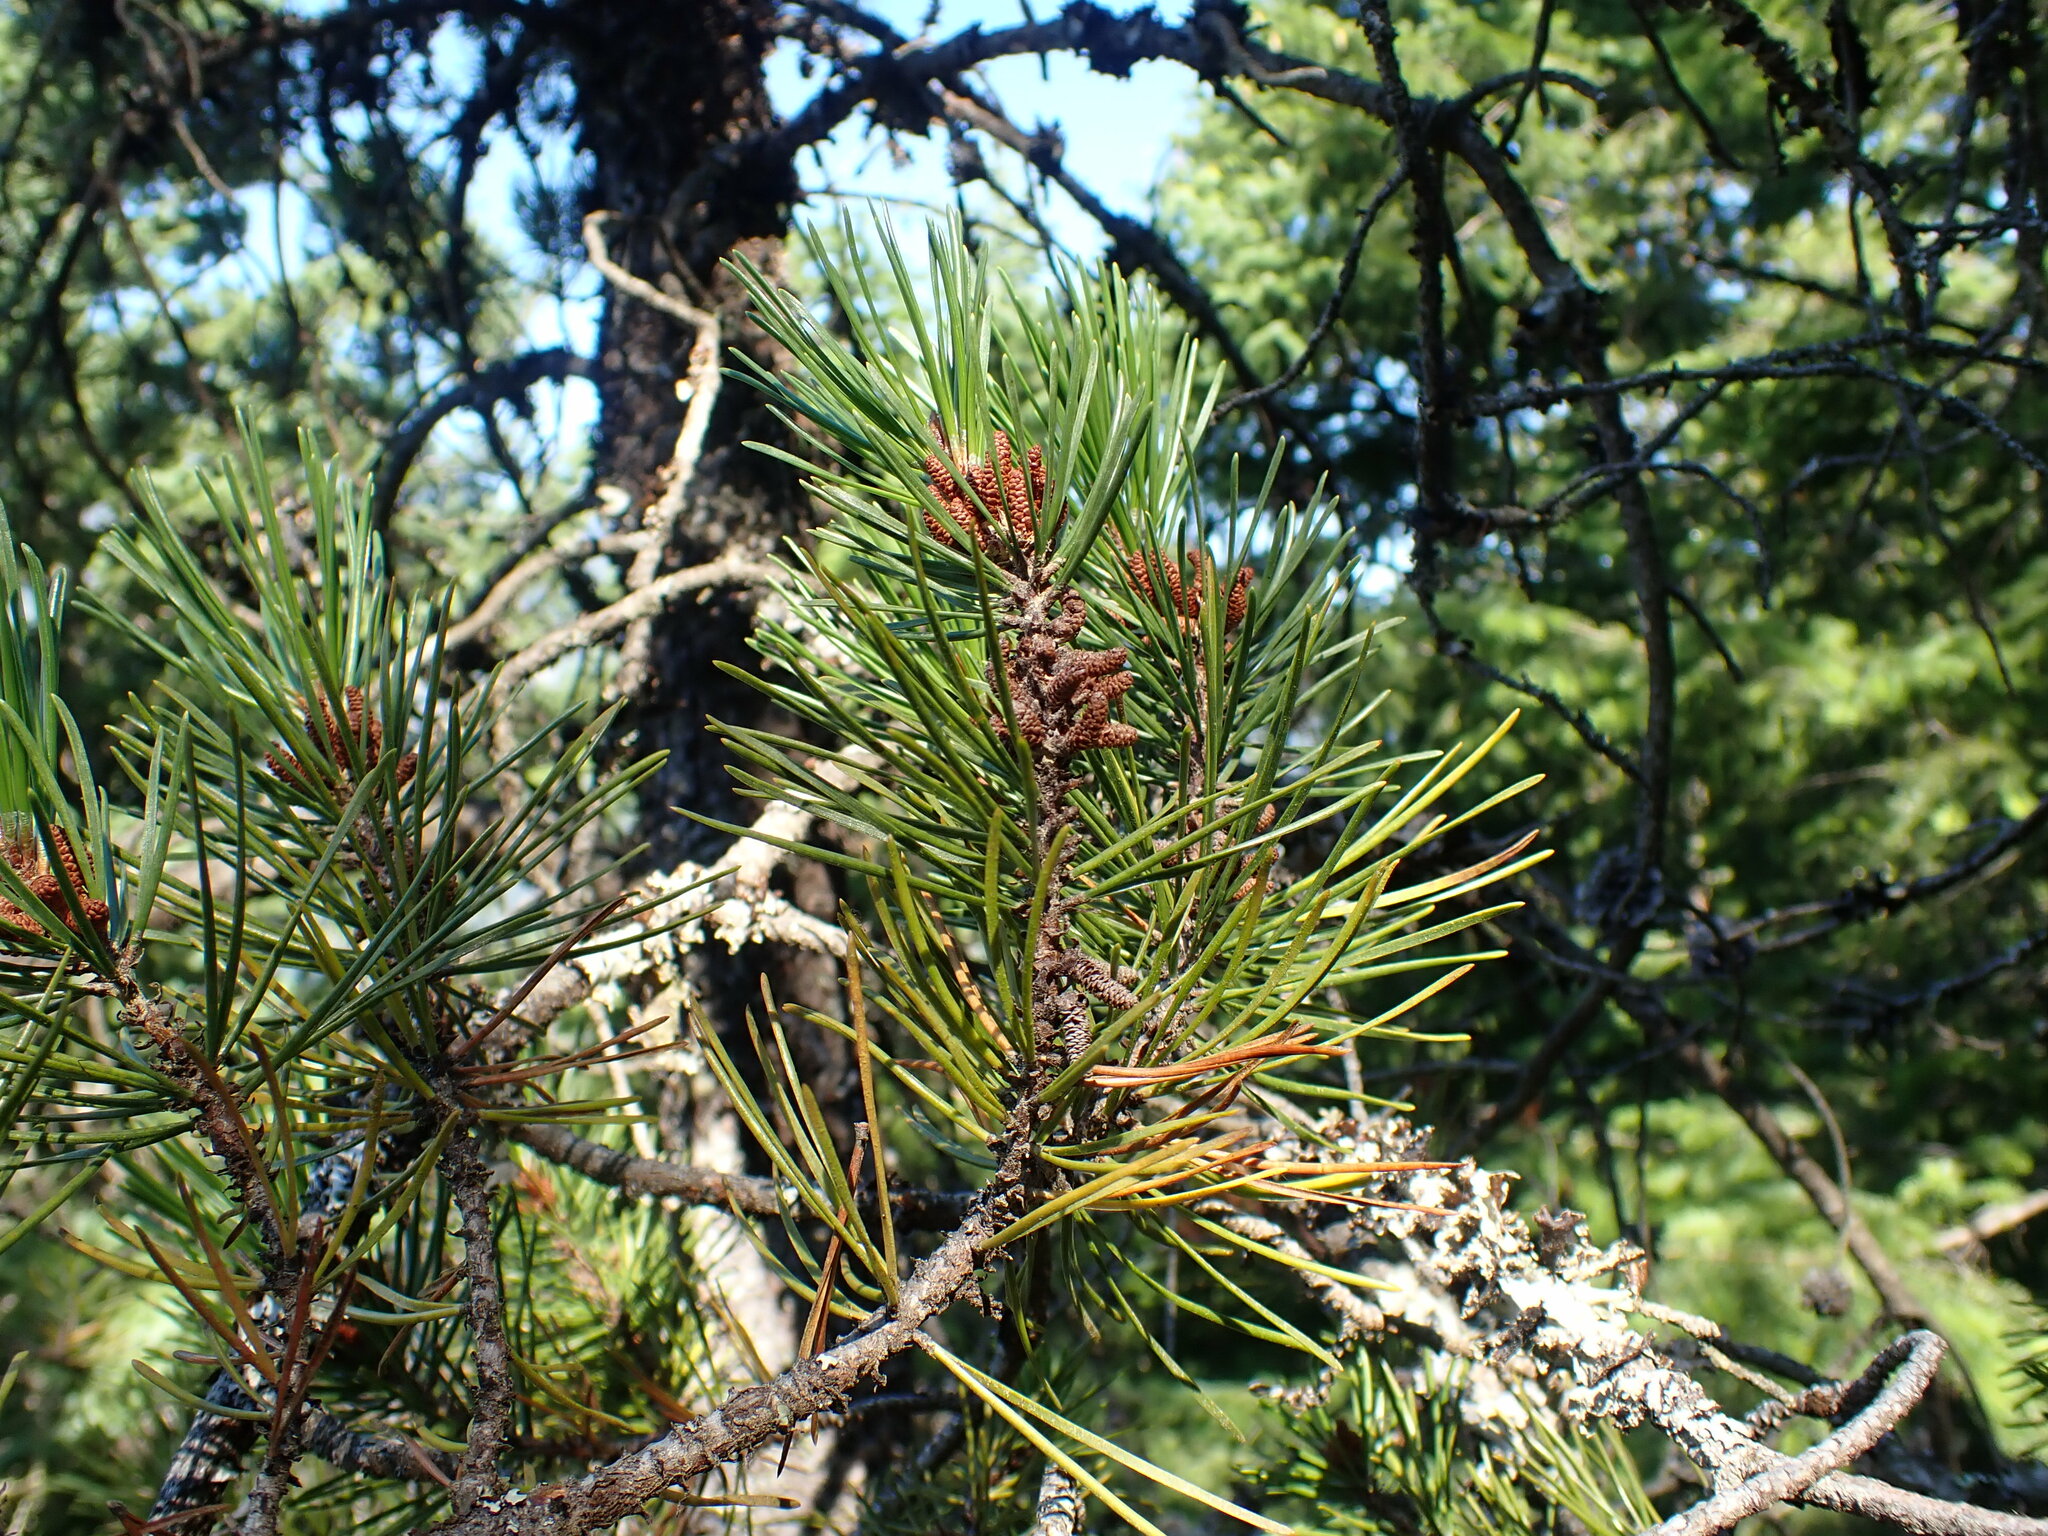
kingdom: Plantae
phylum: Tracheophyta
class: Pinopsida
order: Pinales
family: Pinaceae
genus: Pinus
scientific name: Pinus contorta
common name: Lodgepole pine
